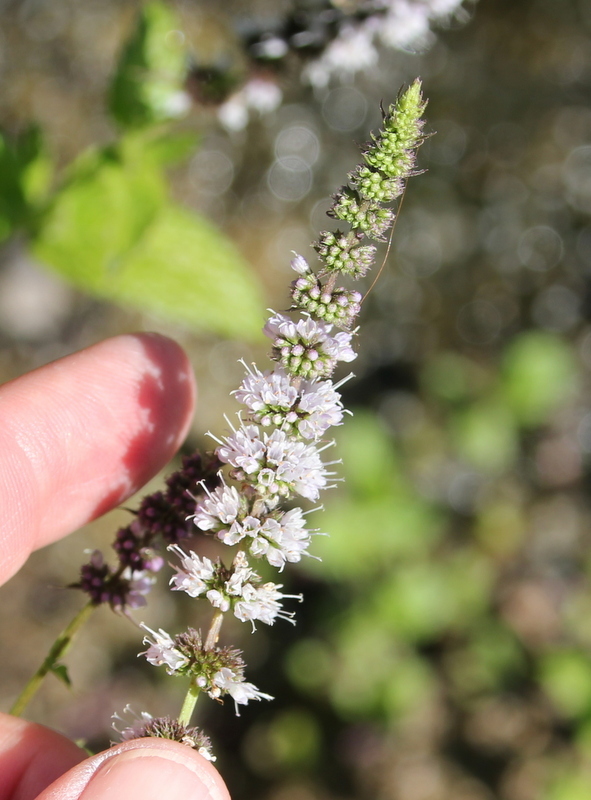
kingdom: Plantae
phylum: Tracheophyta
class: Magnoliopsida
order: Lamiales
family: Lamiaceae
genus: Mentha
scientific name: Mentha spicata
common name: Spearmint
